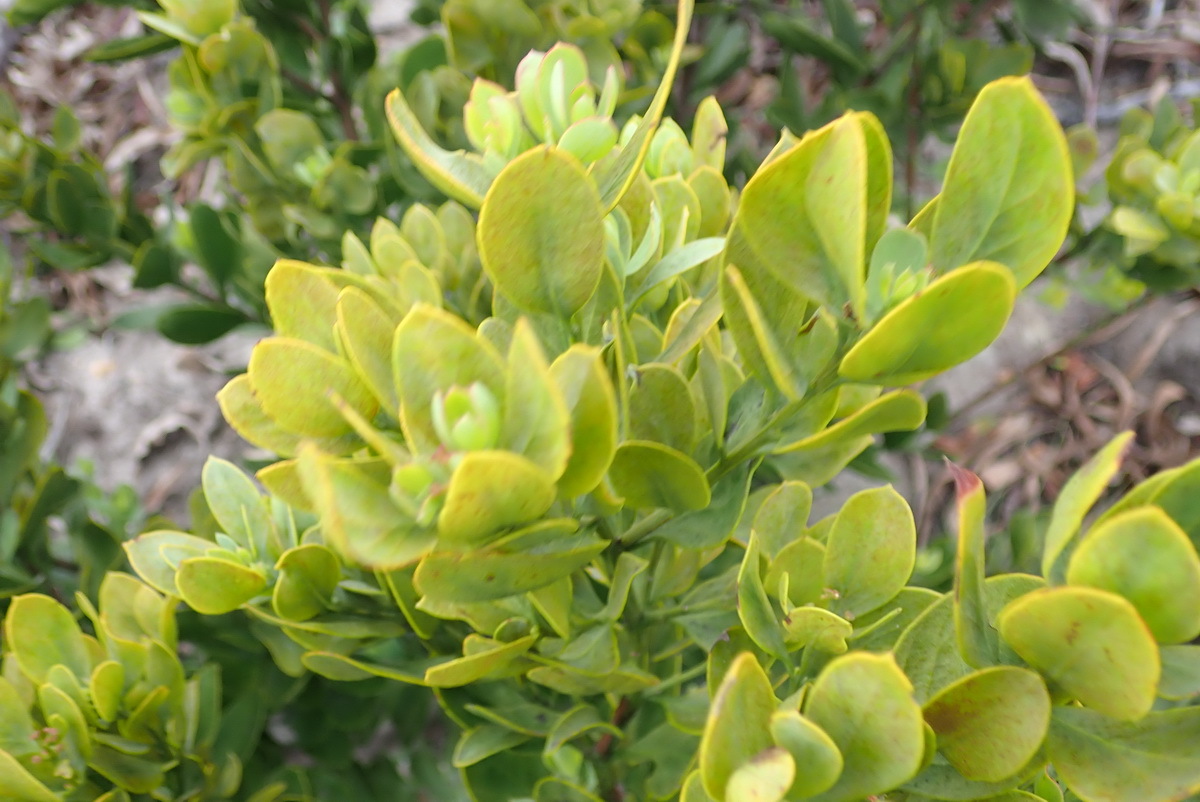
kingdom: Plantae
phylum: Tracheophyta
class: Magnoliopsida
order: Santalales
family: Santalaceae
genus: Osyris
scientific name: Osyris compressa
